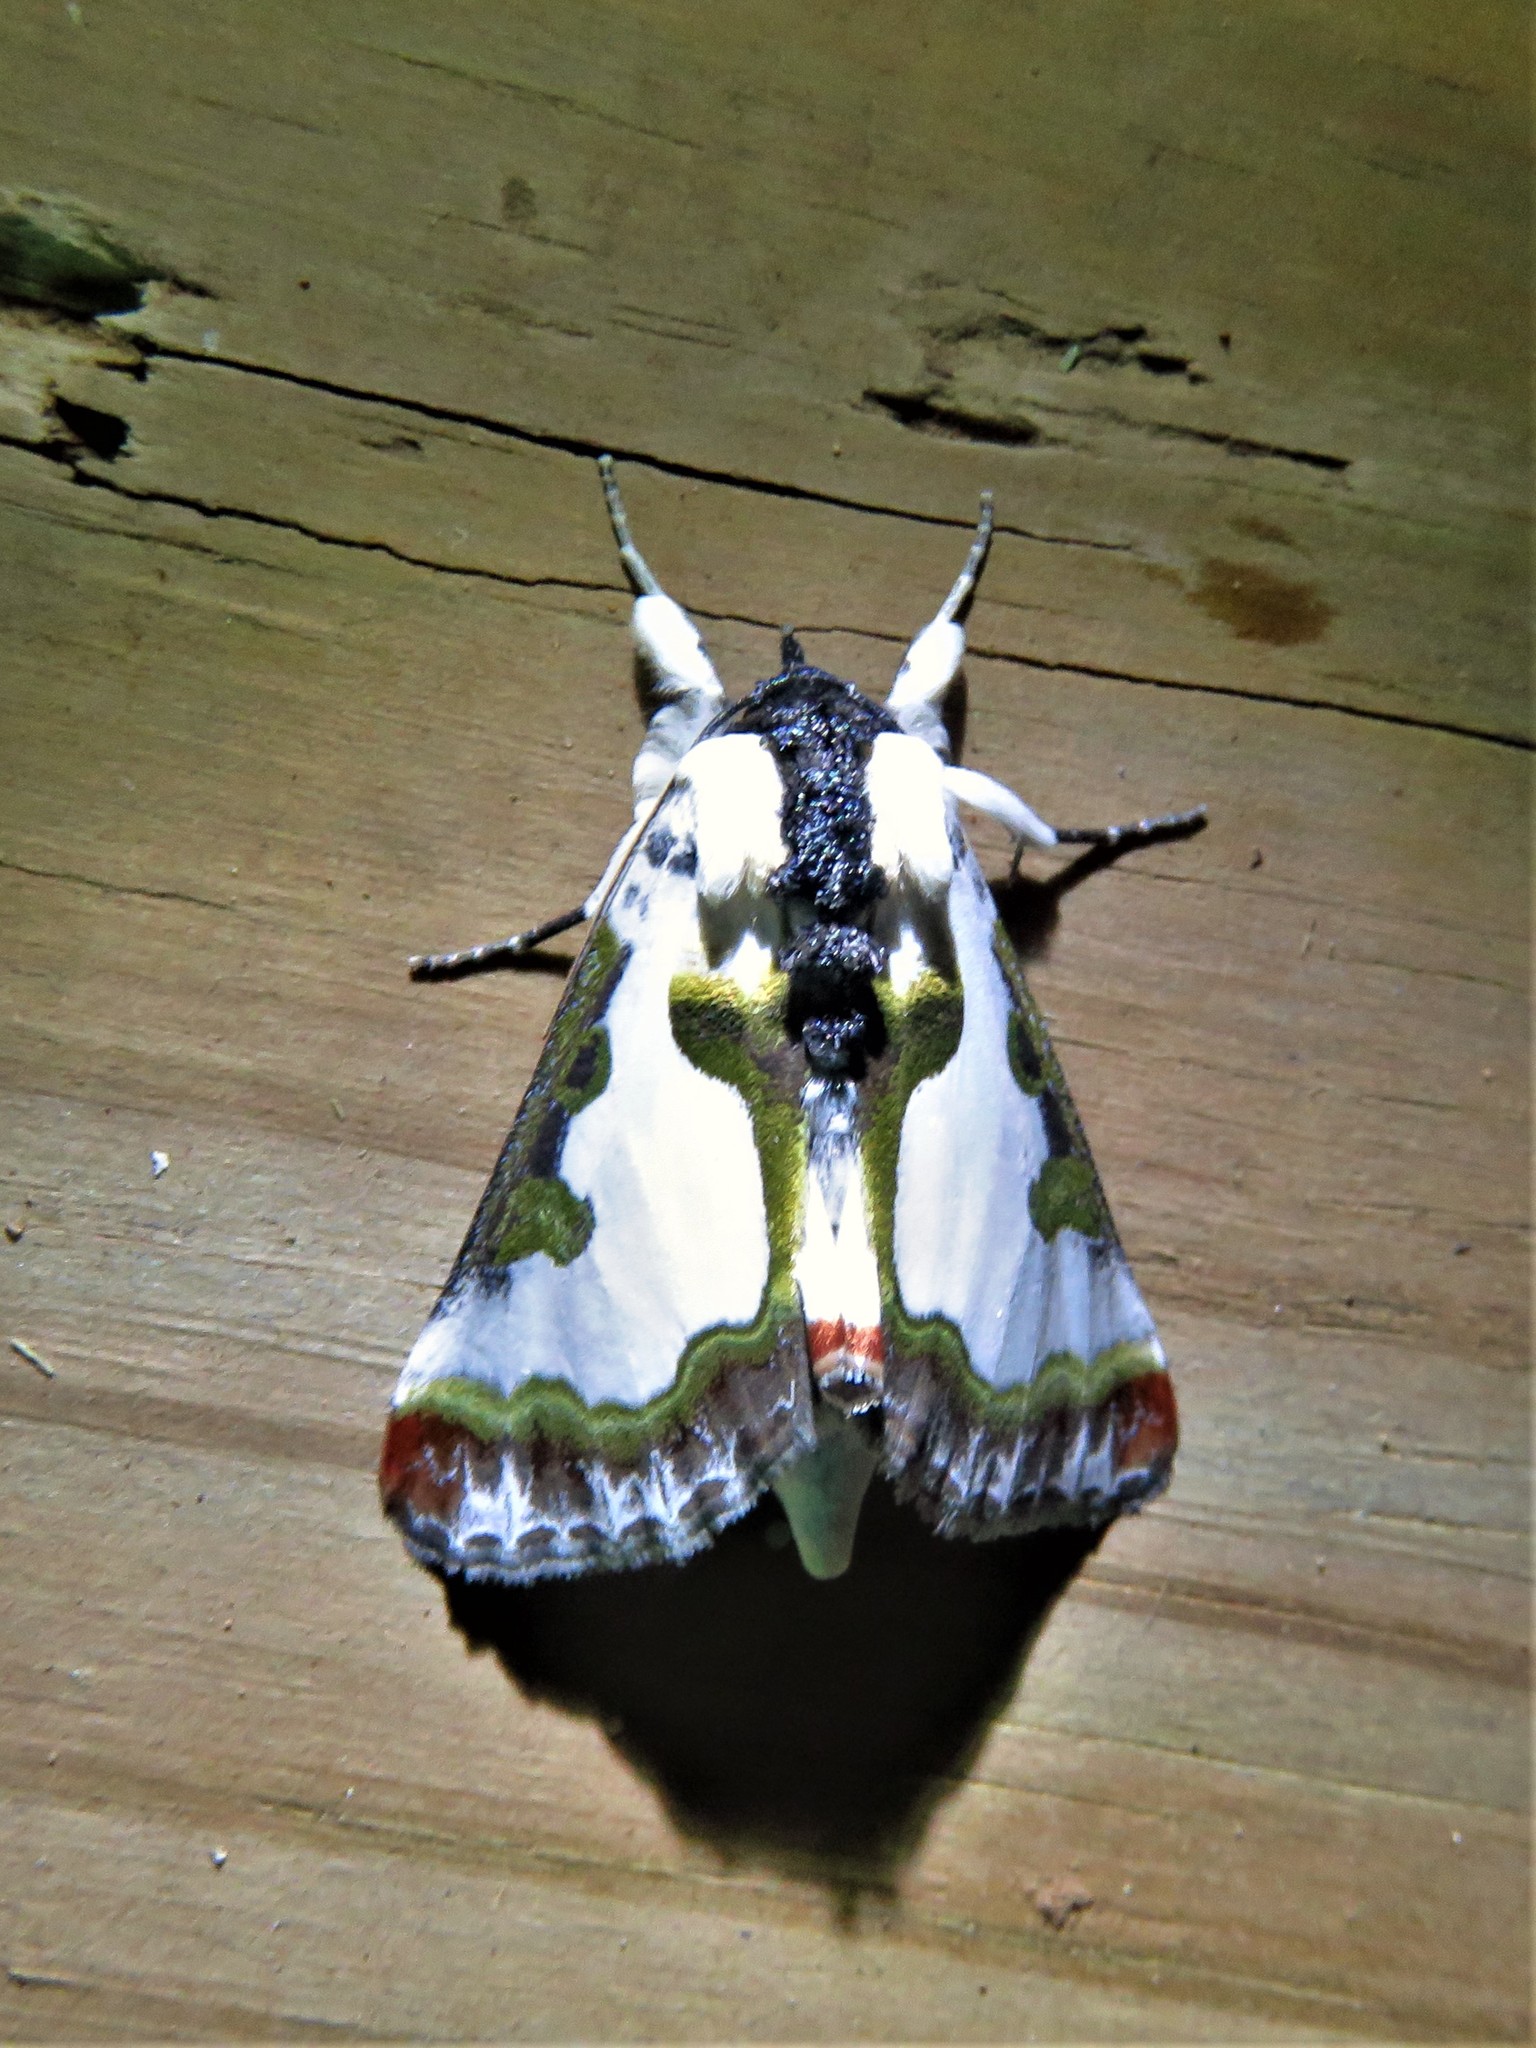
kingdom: Animalia
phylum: Arthropoda
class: Insecta
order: Lepidoptera
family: Noctuidae
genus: Xerociris
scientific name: Xerociris wilsonii
